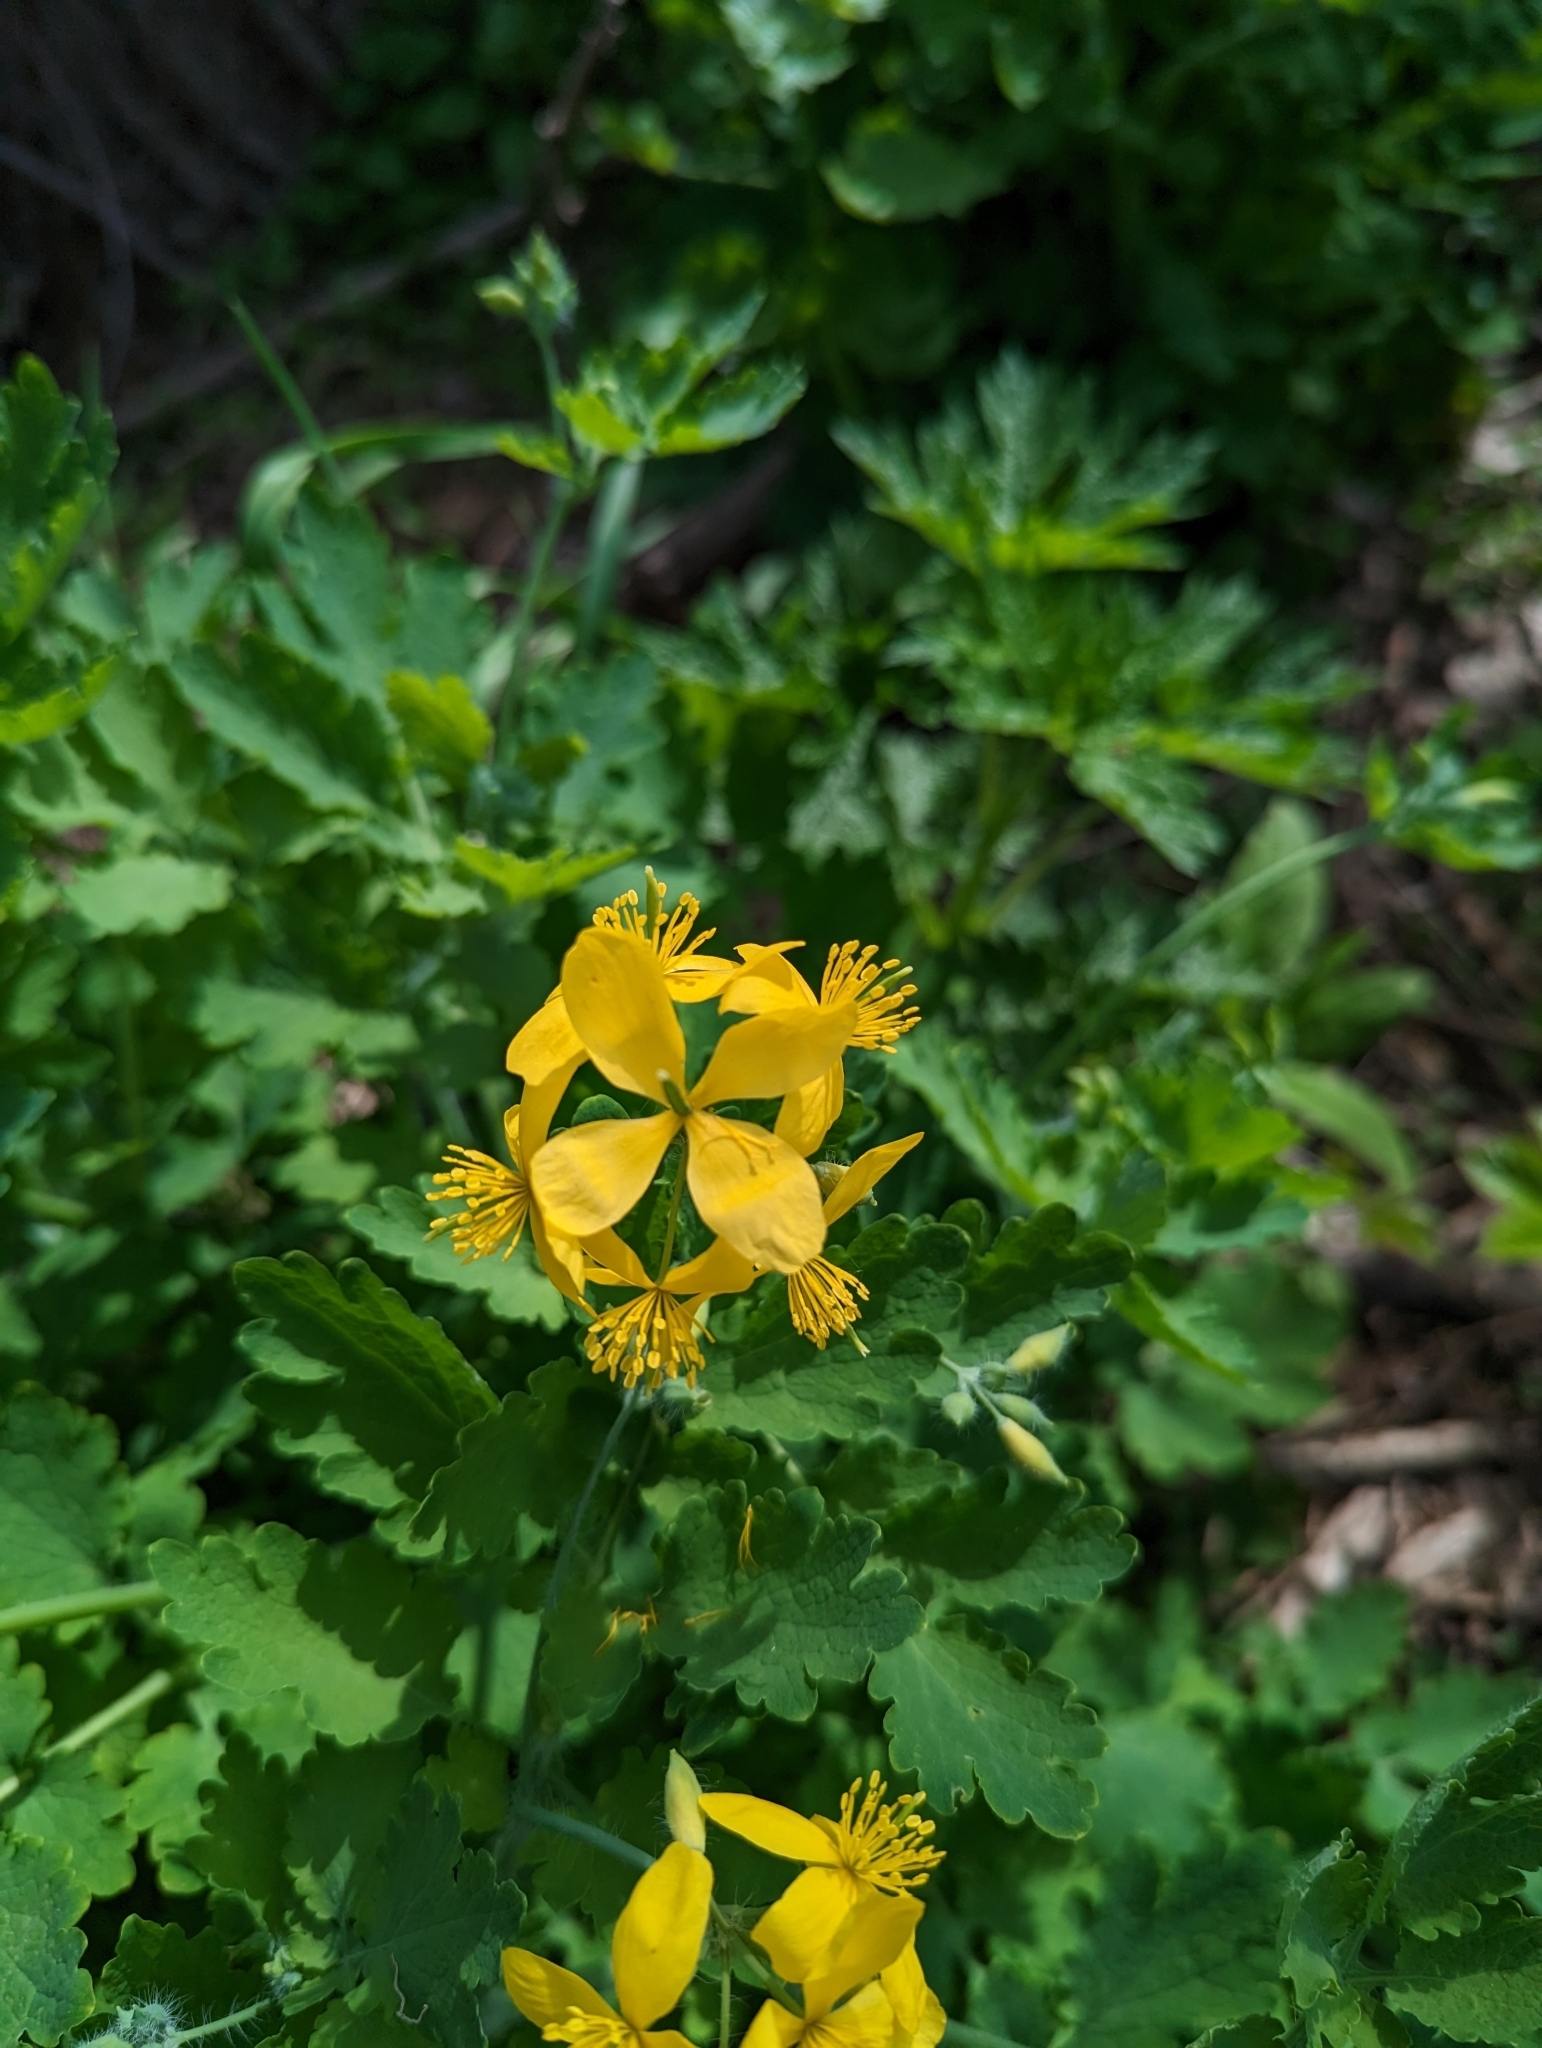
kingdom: Plantae
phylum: Tracheophyta
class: Magnoliopsida
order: Ranunculales
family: Papaveraceae
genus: Chelidonium
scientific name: Chelidonium majus
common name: Greater celandine
